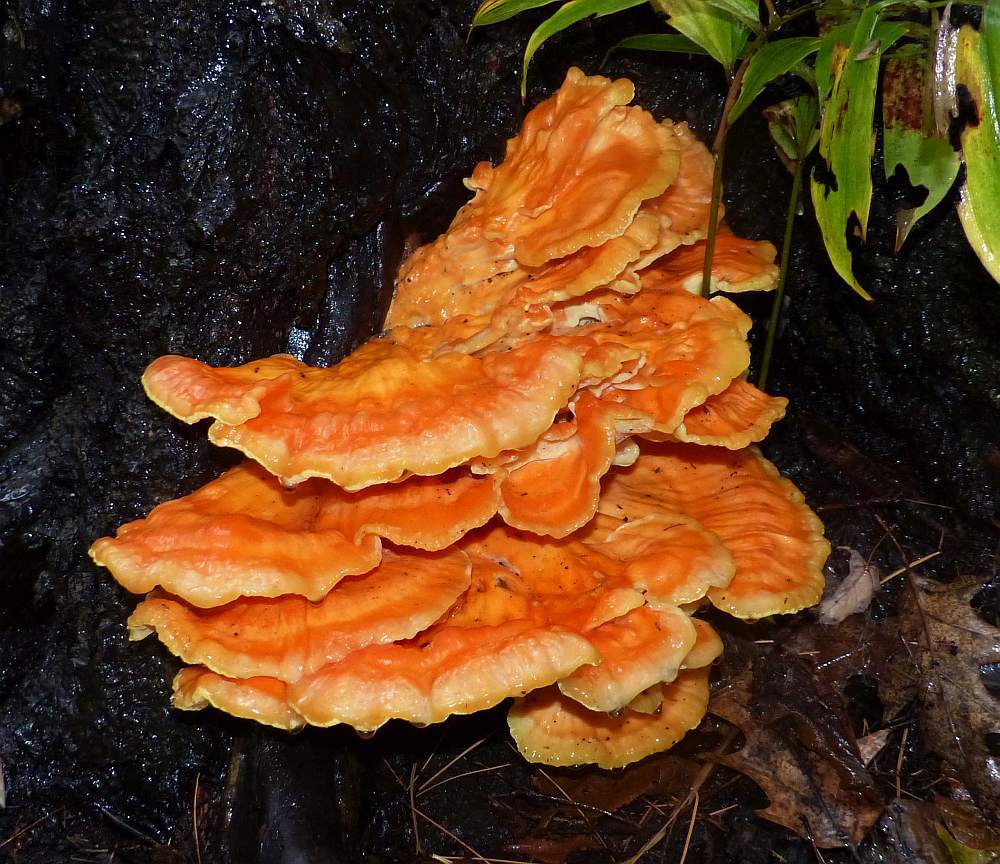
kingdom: Fungi
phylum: Basidiomycota
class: Agaricomycetes
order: Polyporales
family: Laetiporaceae
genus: Laetiporus
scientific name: Laetiporus sulphureus
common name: Chicken of the woods
